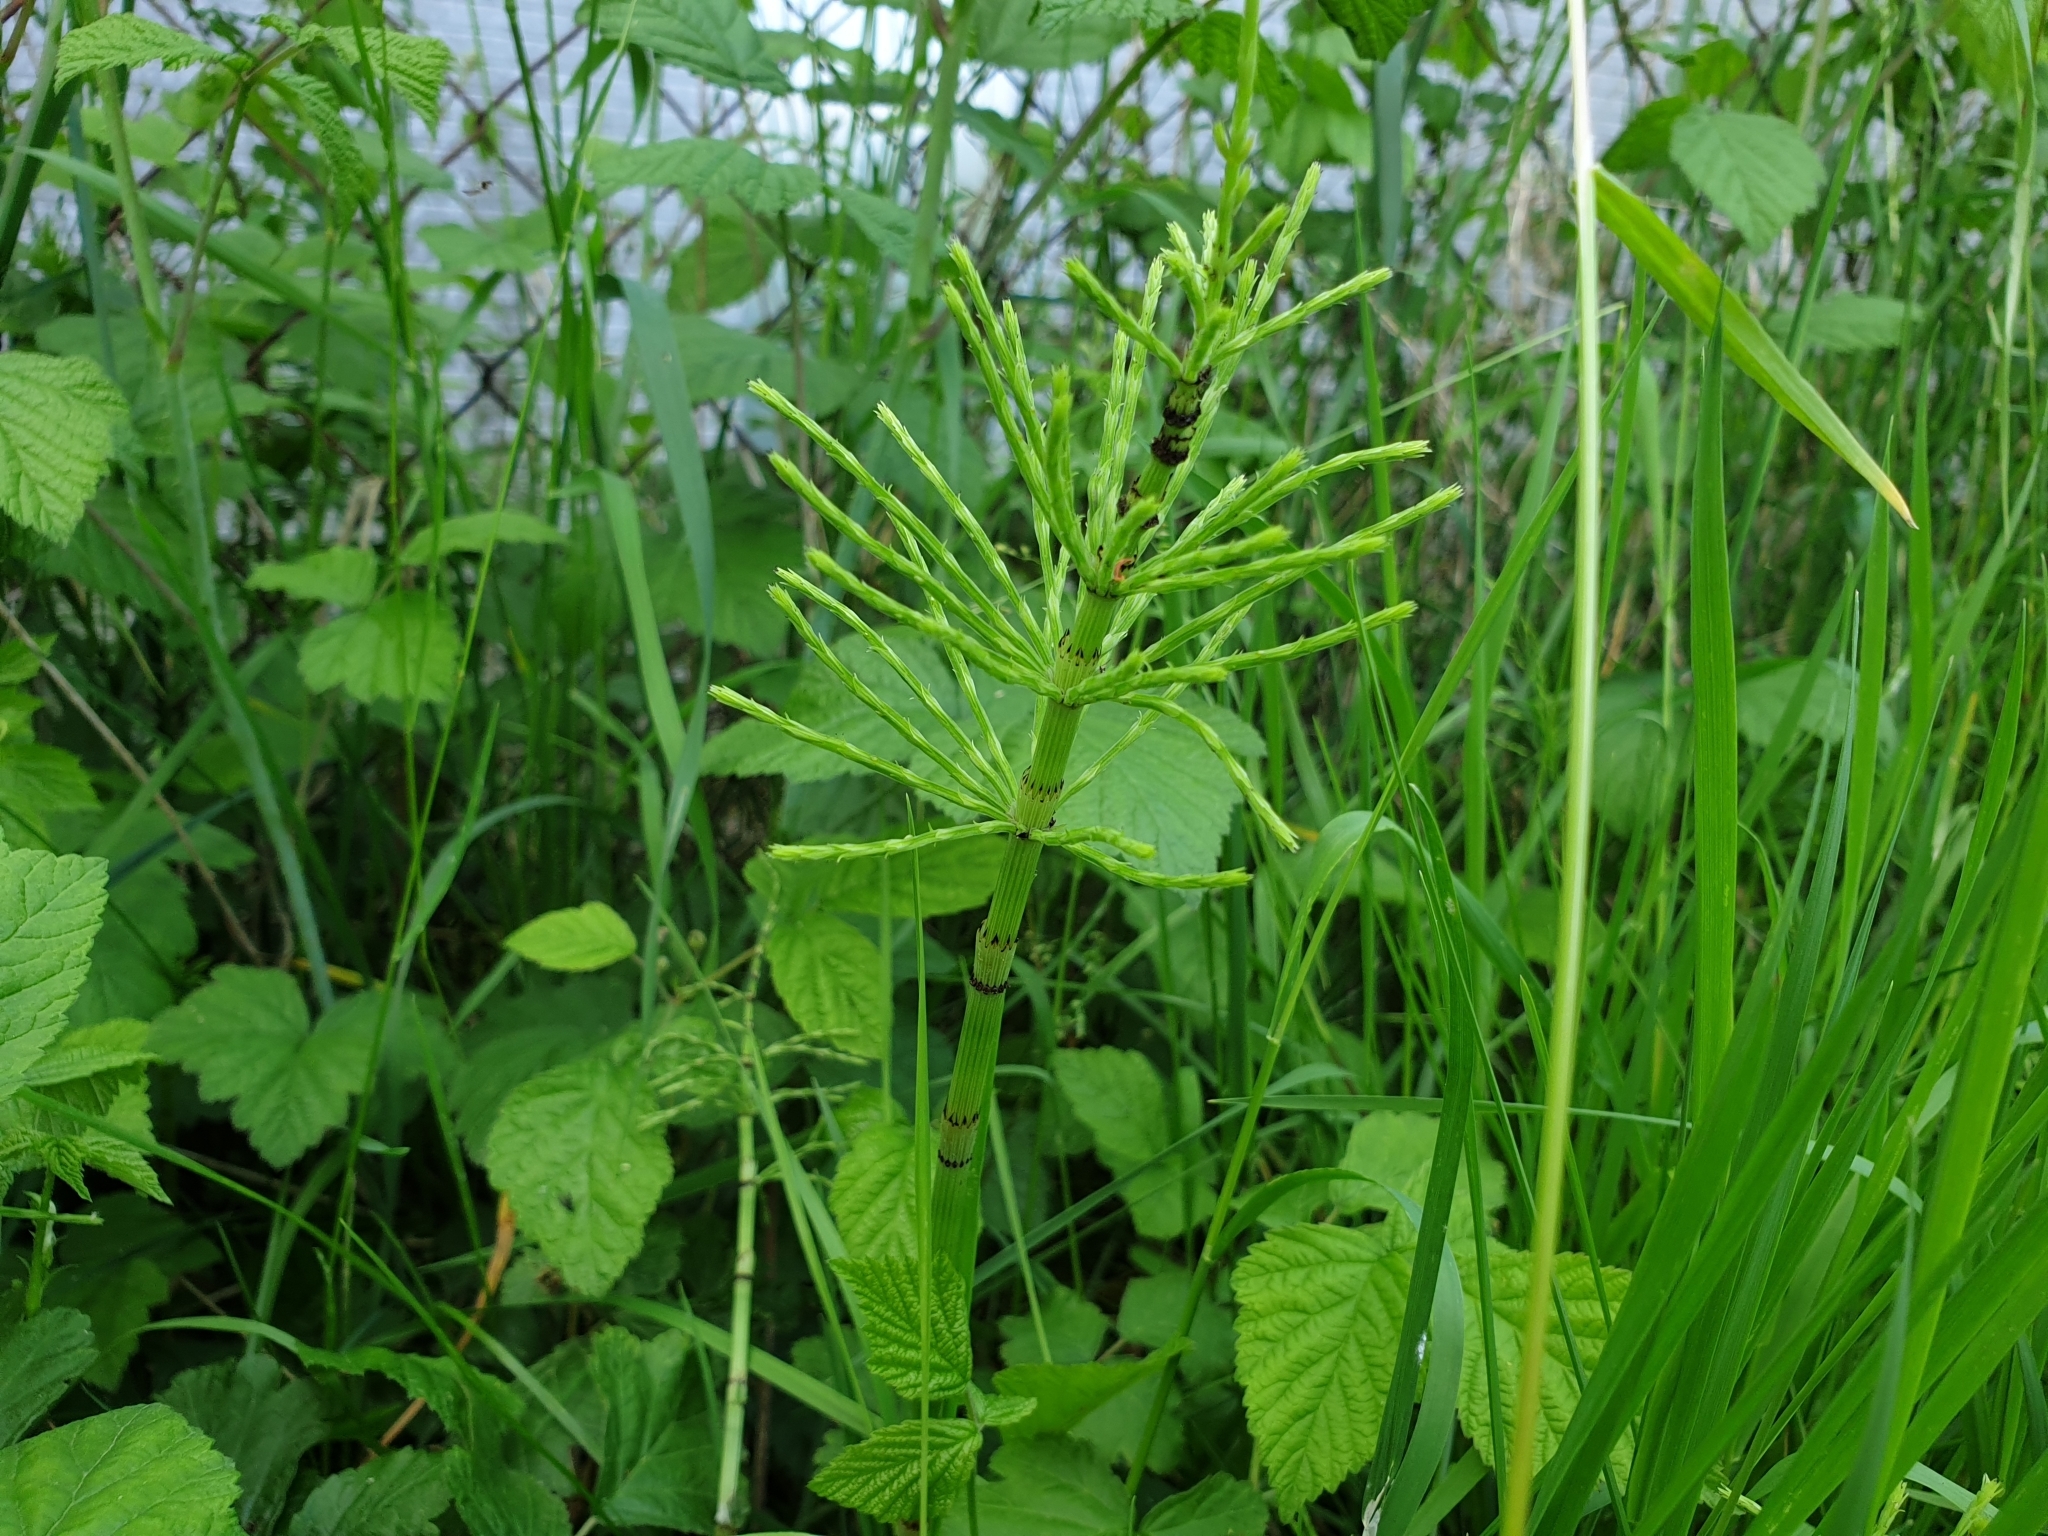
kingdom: Plantae
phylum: Tracheophyta
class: Polypodiopsida
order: Equisetales
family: Equisetaceae
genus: Equisetum
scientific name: Equisetum arvense
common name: Field horsetail
